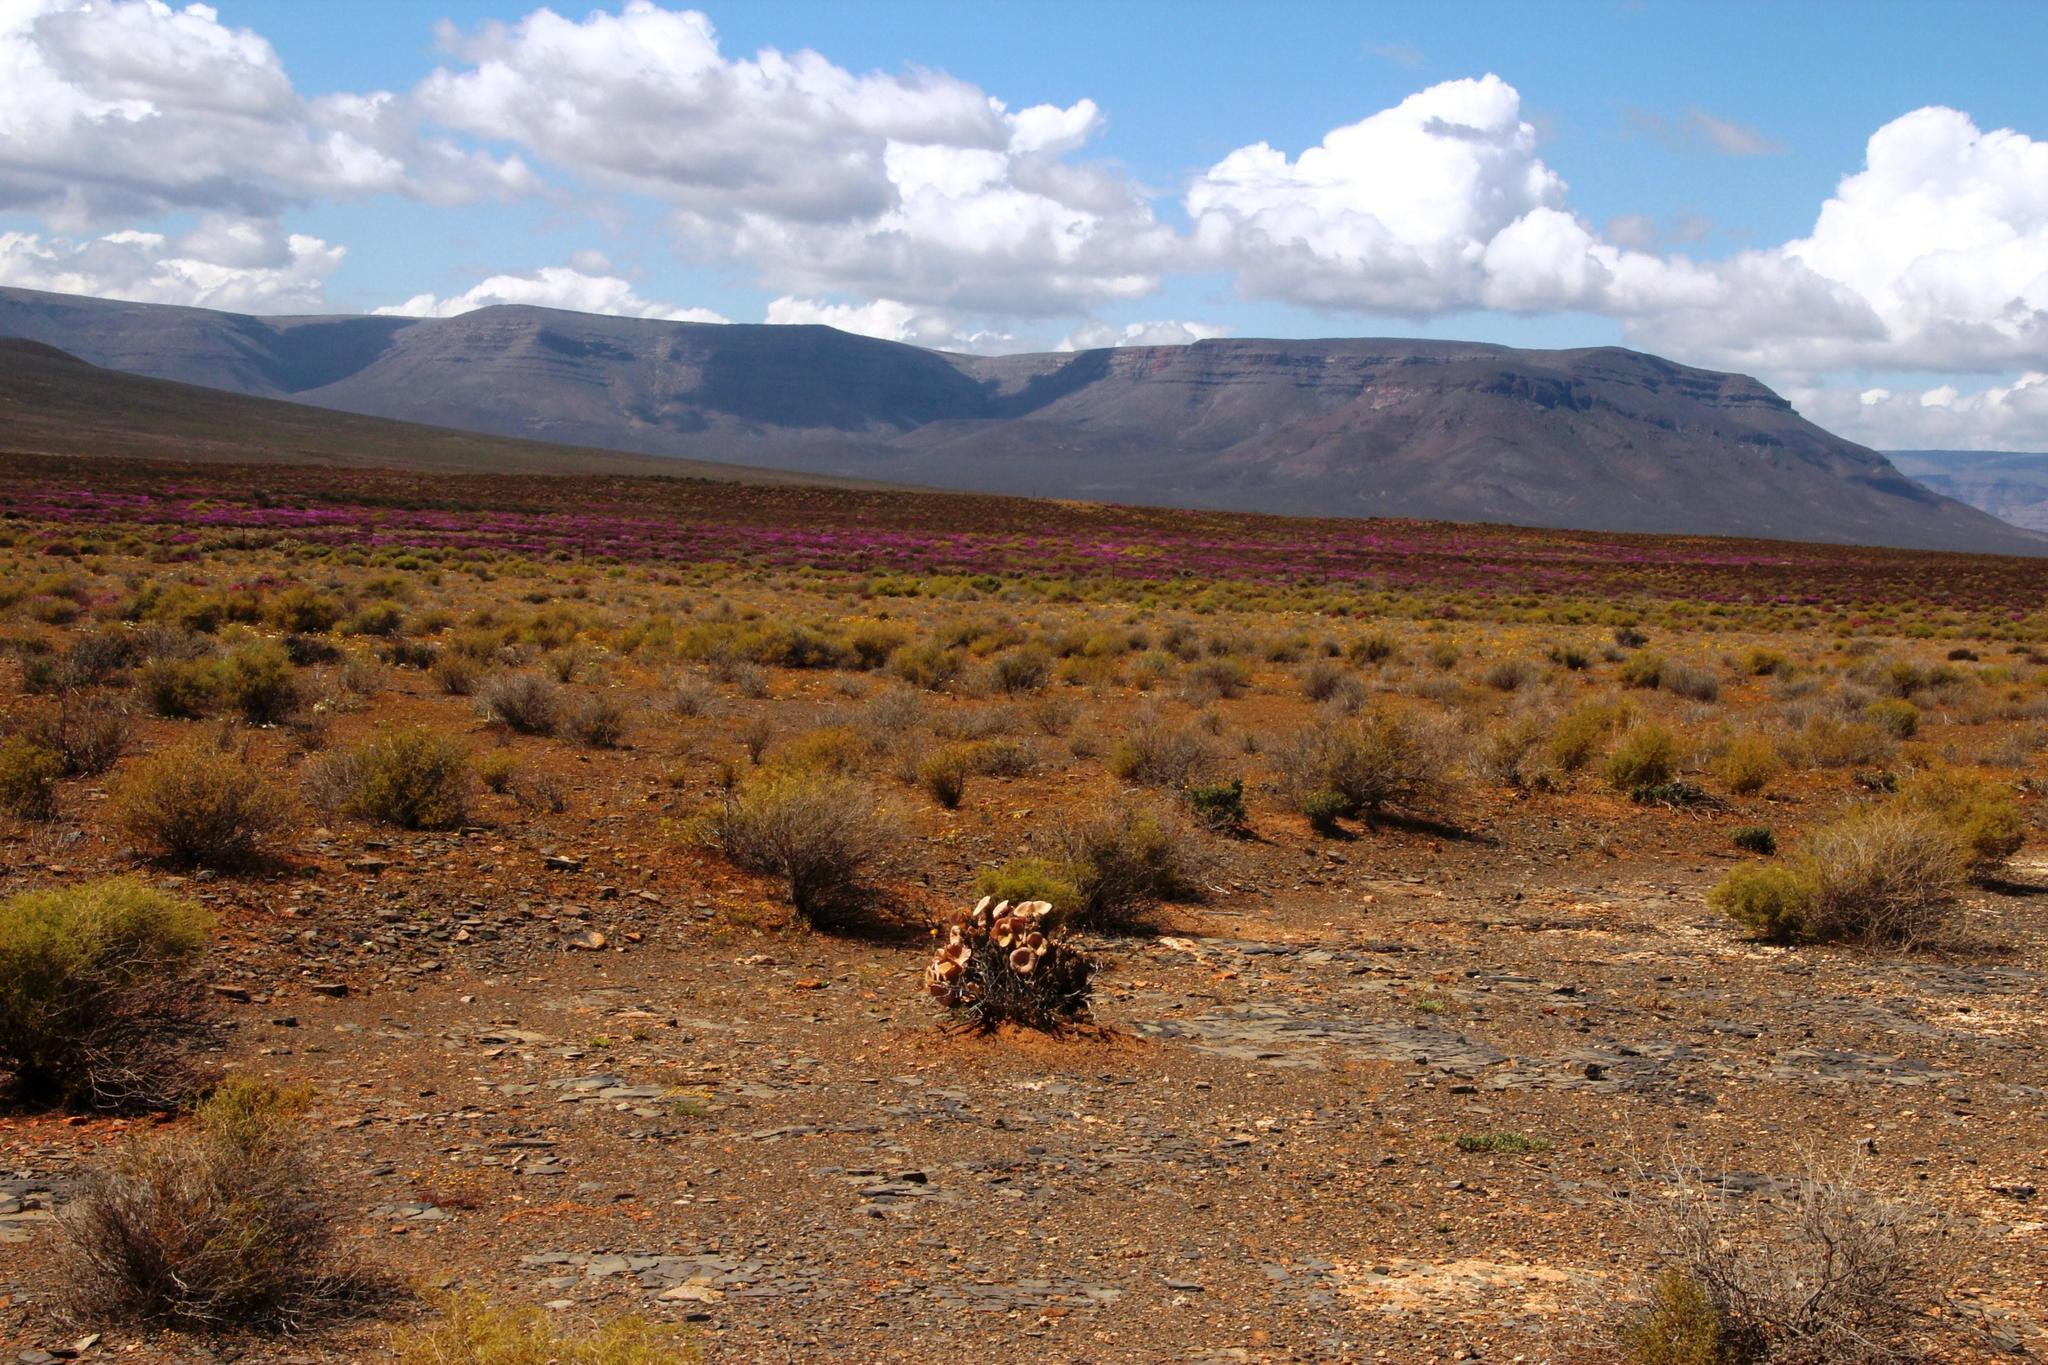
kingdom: Plantae
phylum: Tracheophyta
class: Magnoliopsida
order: Gentianales
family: Apocynaceae
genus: Hoodia
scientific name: Hoodia gordonii
